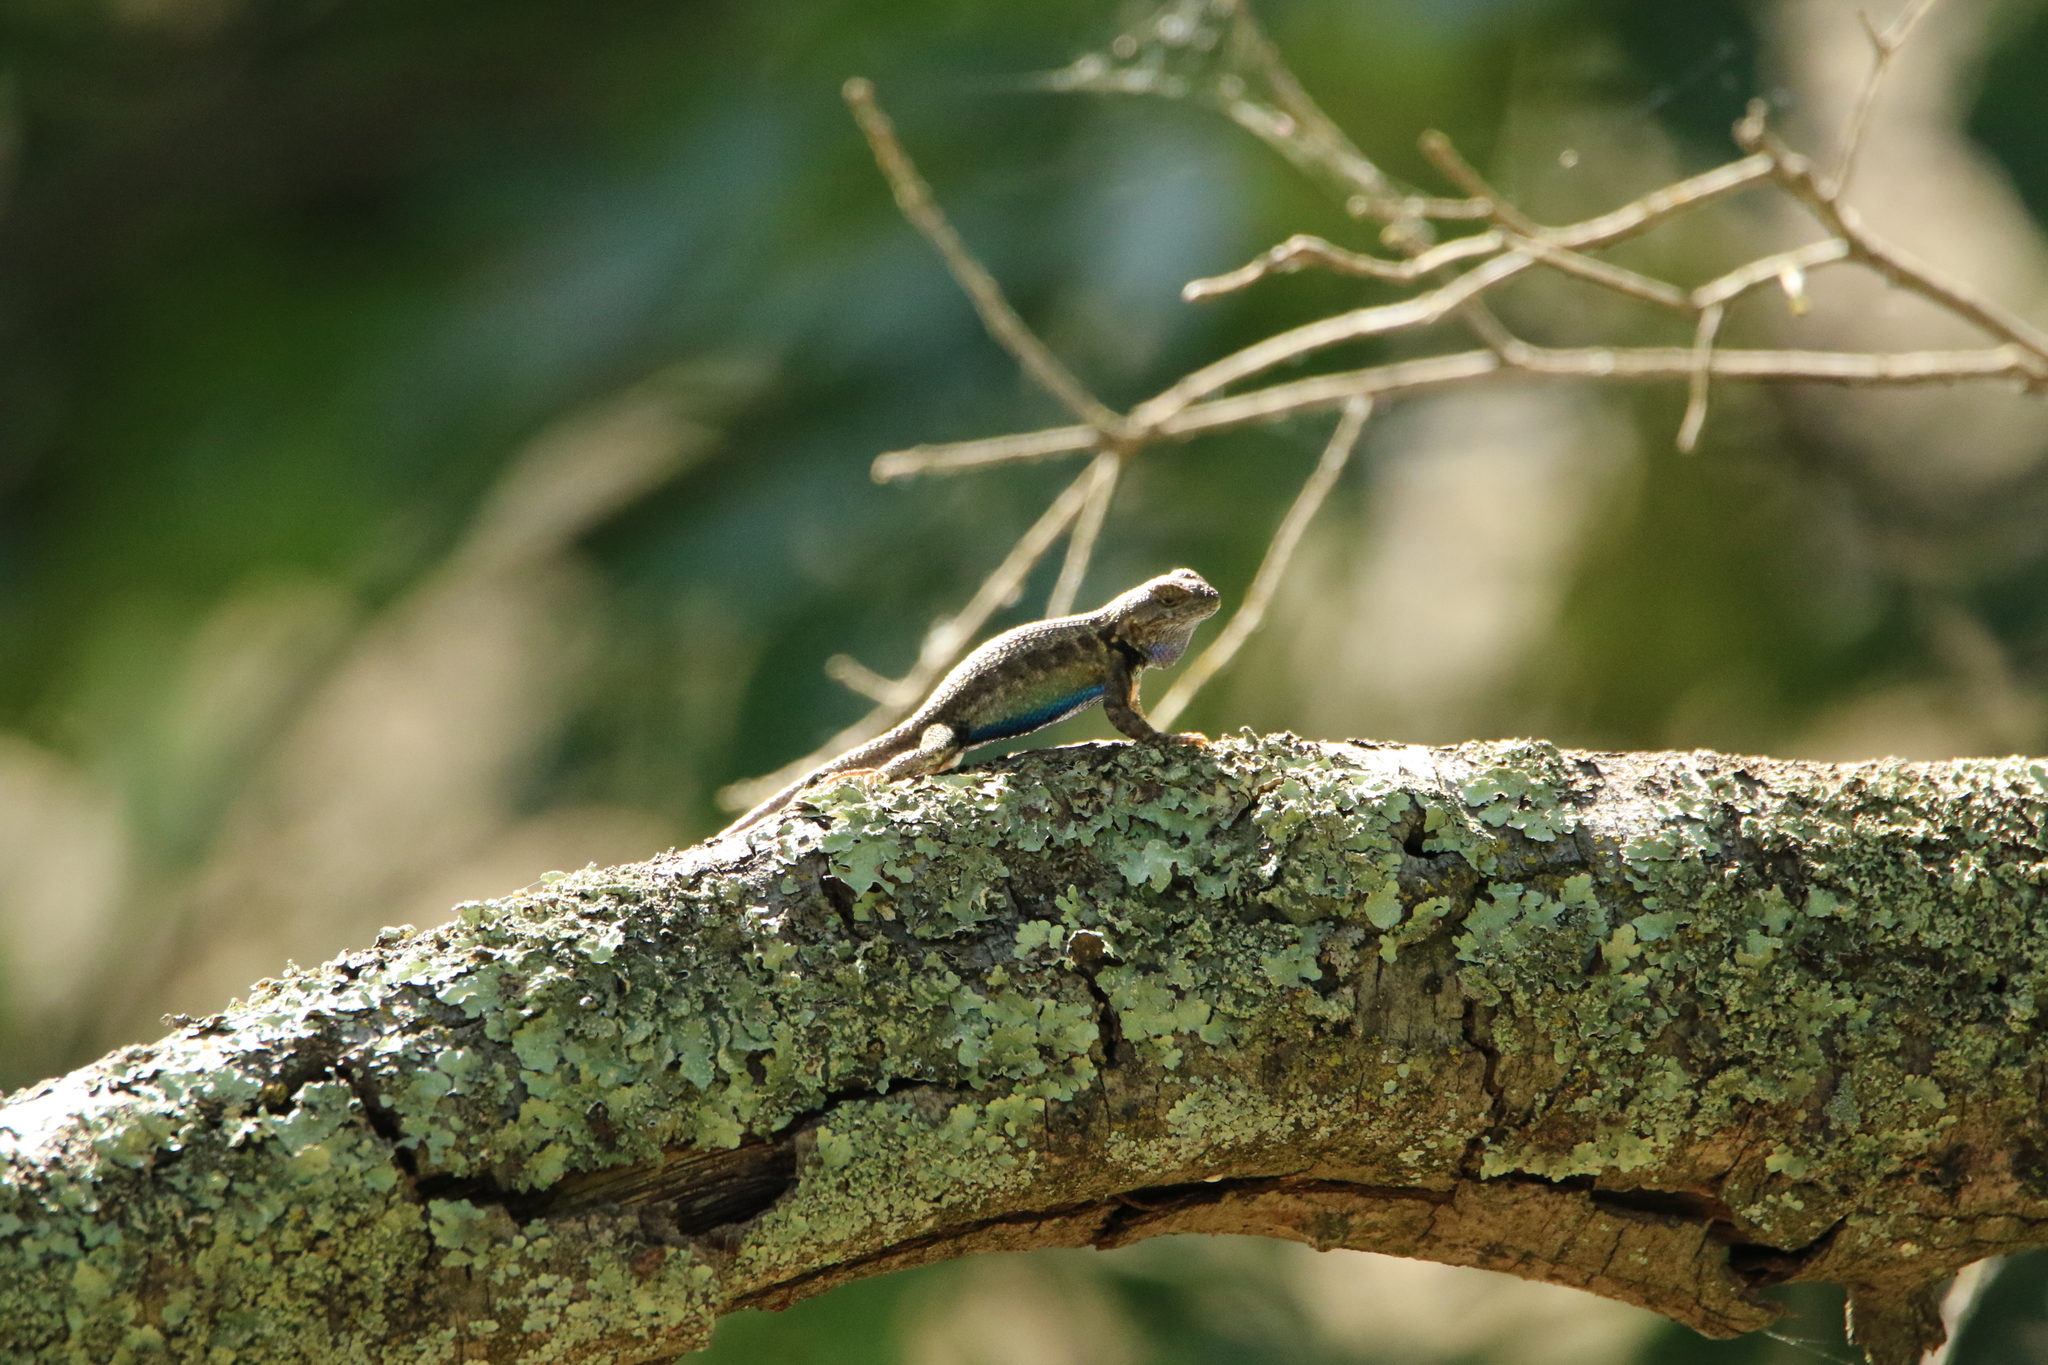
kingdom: Animalia
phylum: Chordata
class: Squamata
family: Phrynosomatidae
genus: Sceloporus
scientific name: Sceloporus occidentalis
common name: Western fence lizard
